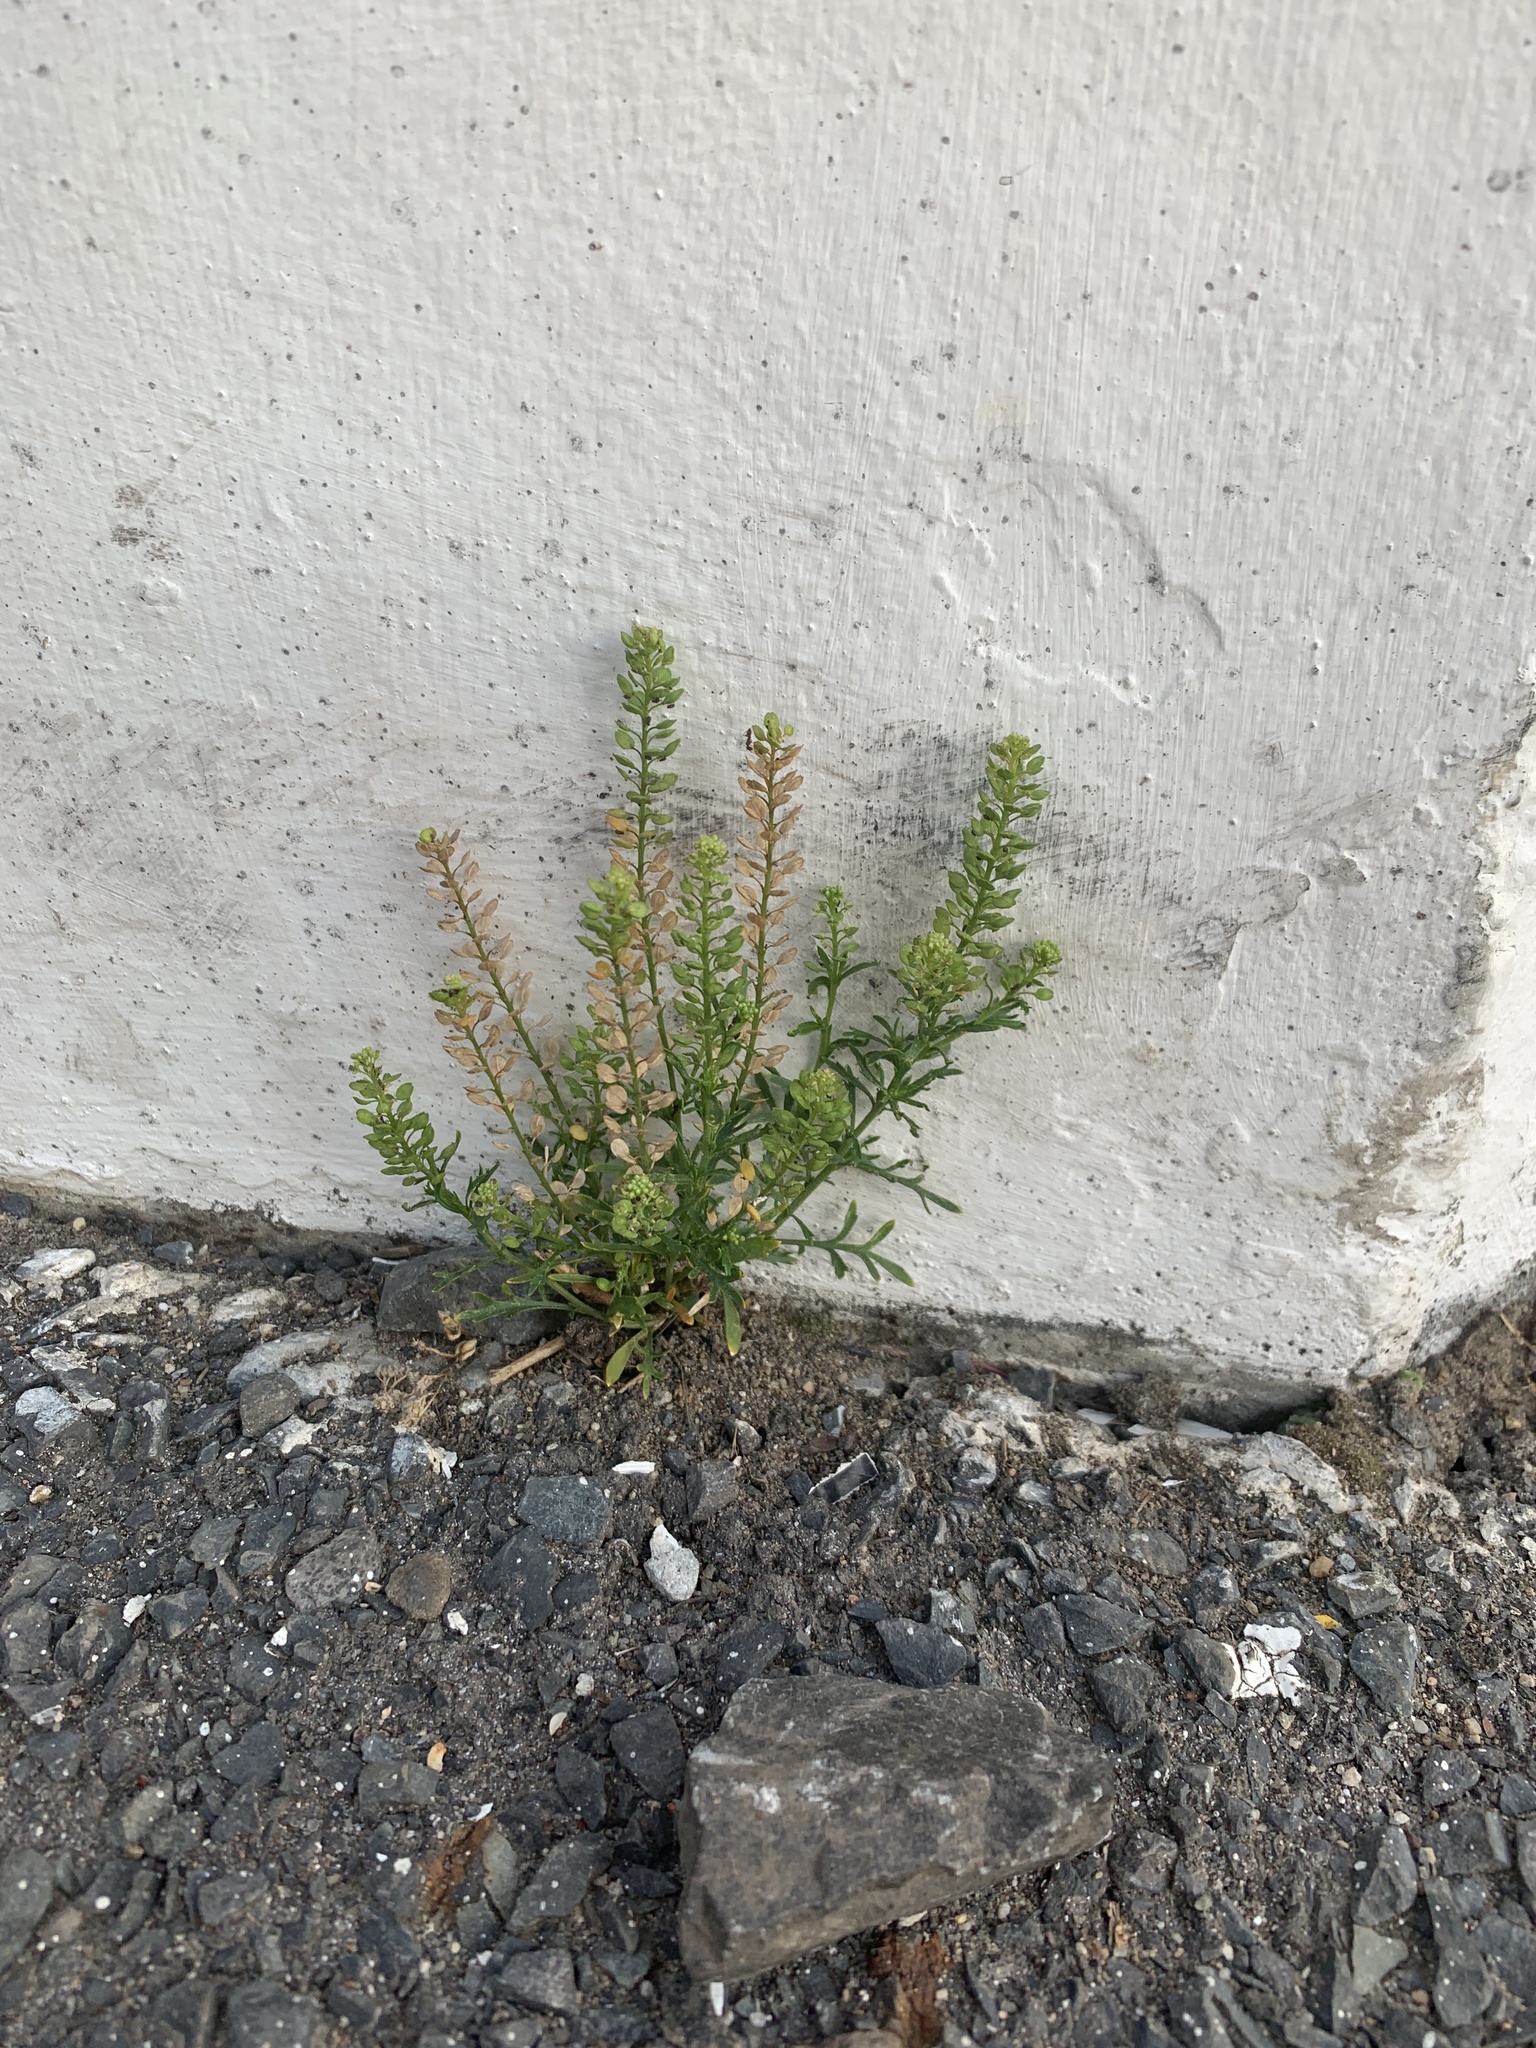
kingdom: Plantae
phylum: Tracheophyta
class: Magnoliopsida
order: Brassicales
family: Brassicaceae
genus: Lepidium
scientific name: Lepidium bonariense
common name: Argentine pepperwort
